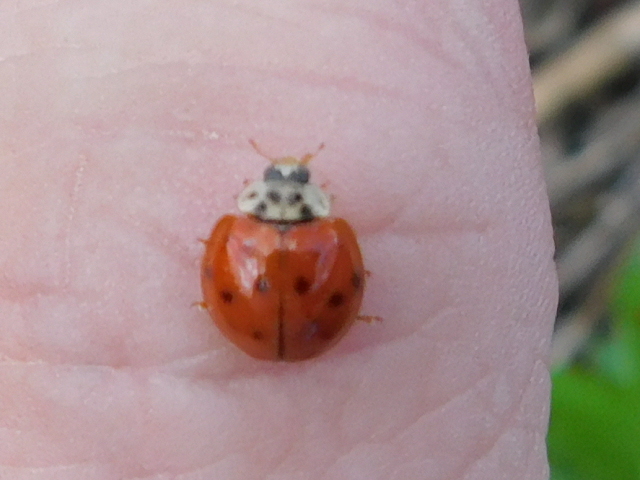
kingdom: Animalia
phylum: Arthropoda
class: Insecta
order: Coleoptera
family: Coccinellidae
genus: Harmonia
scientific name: Harmonia axyridis
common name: Harlequin ladybird
